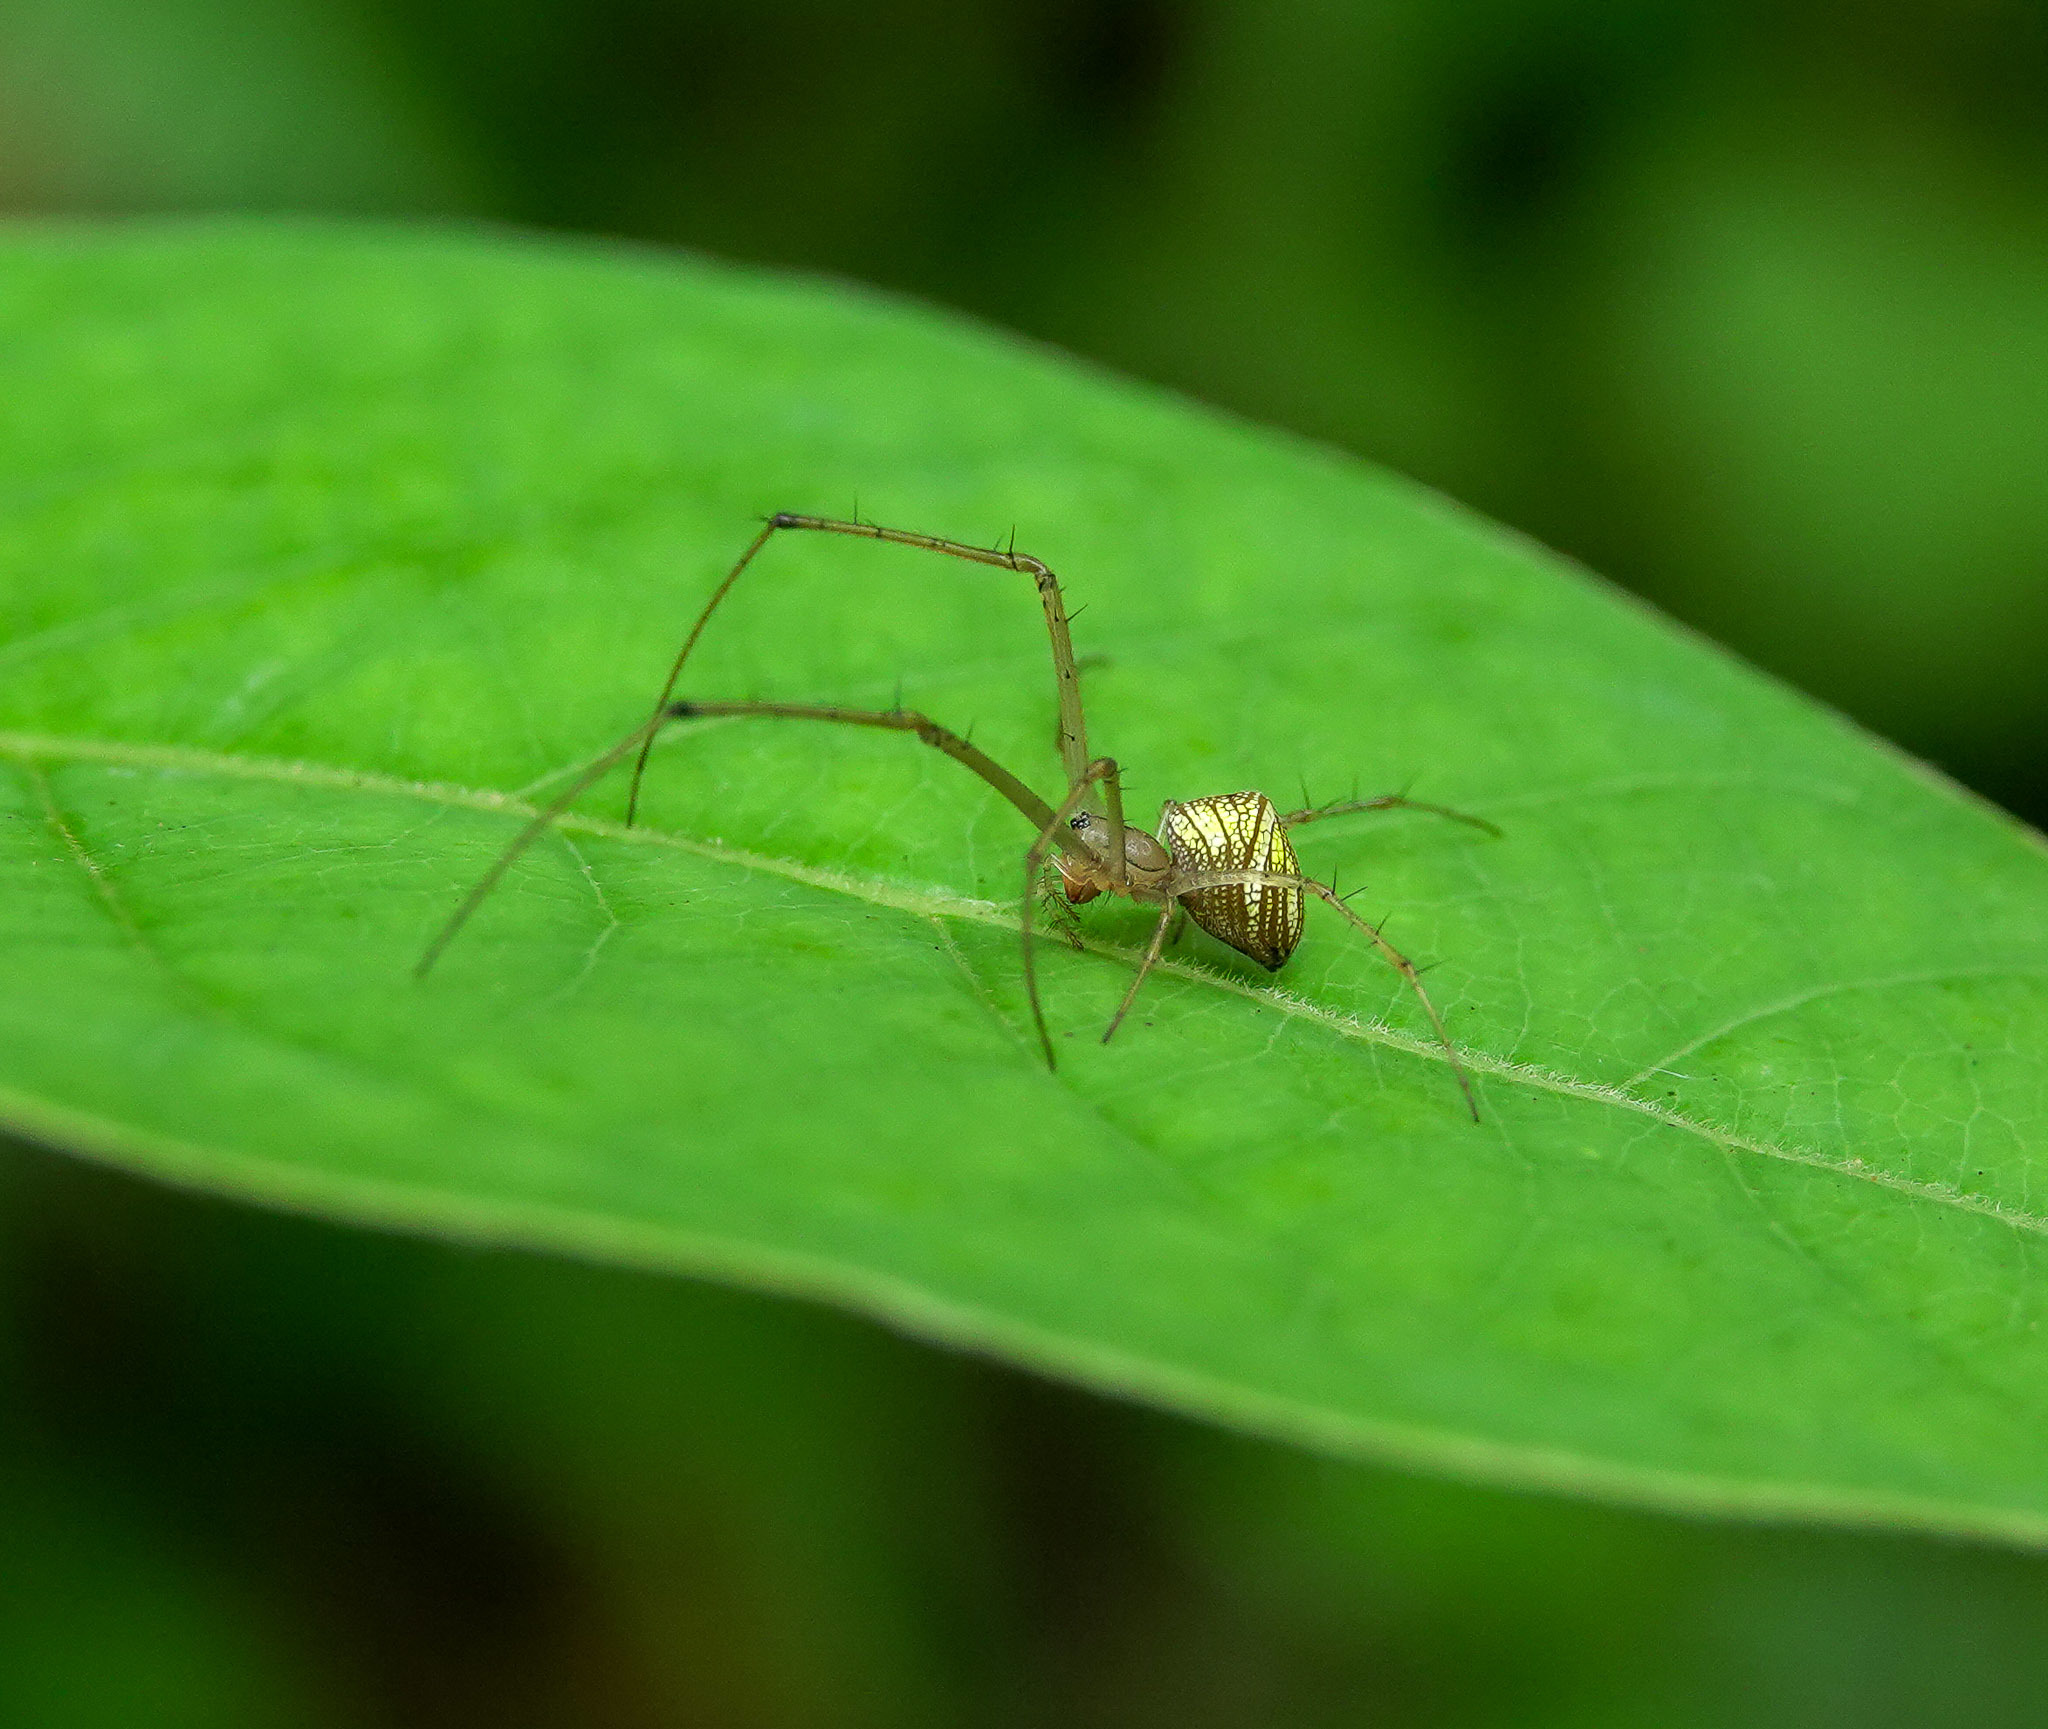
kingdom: Animalia
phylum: Arthropoda
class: Arachnida
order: Araneae
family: Tetragnathidae
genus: Tylorida
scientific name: Tylorida striata
